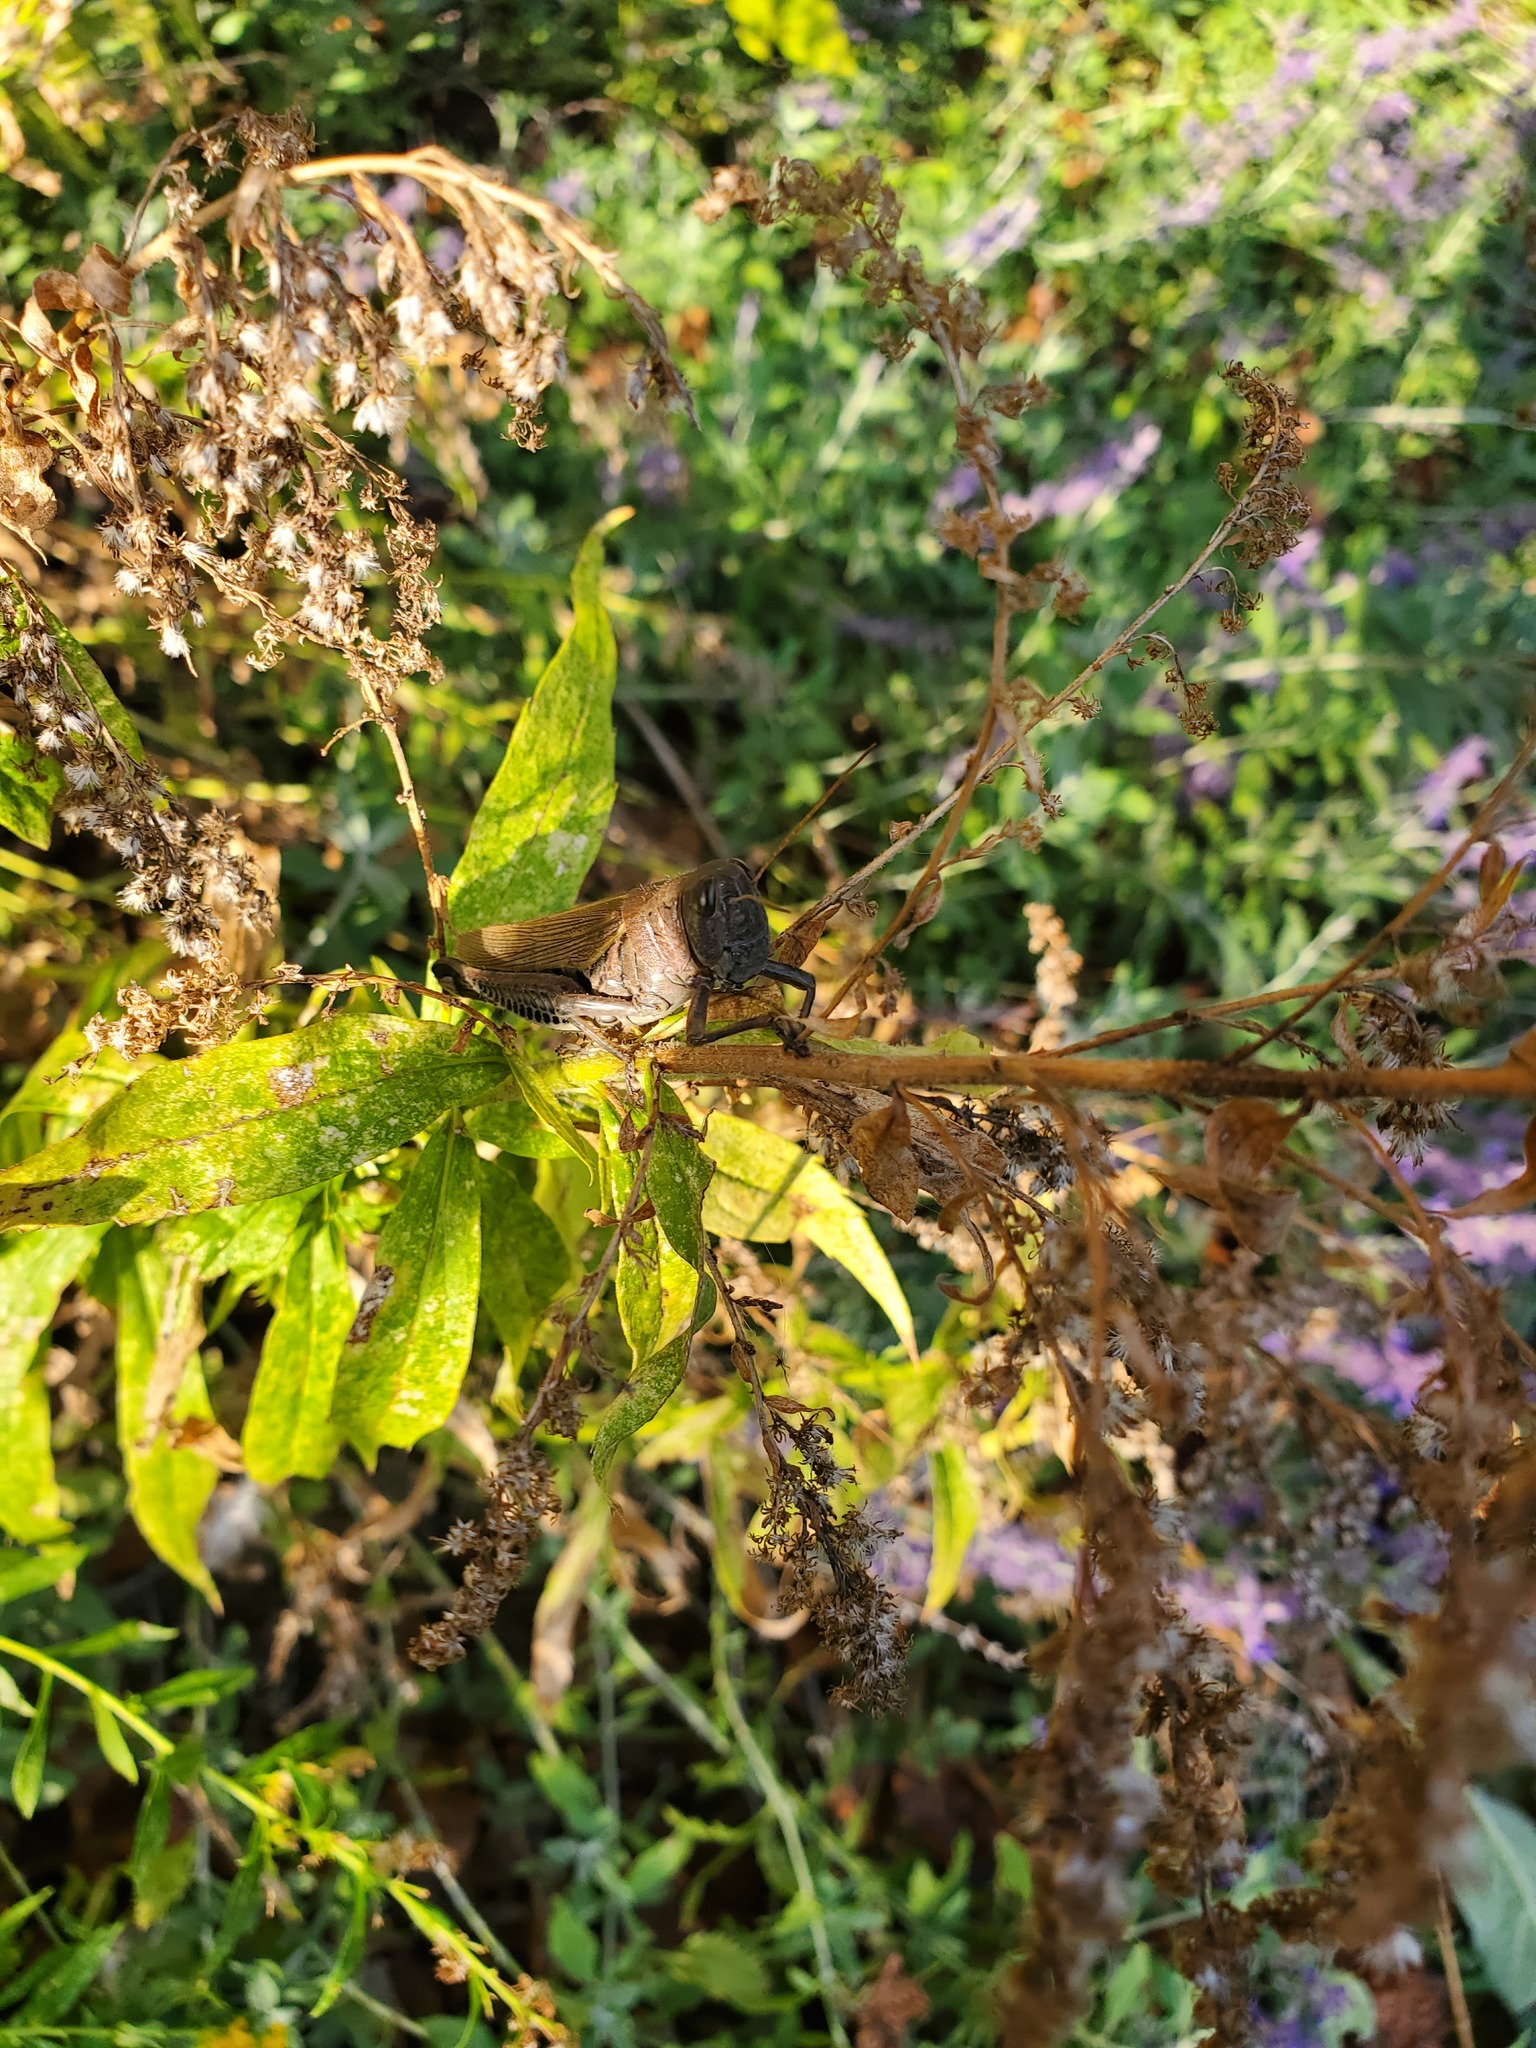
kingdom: Animalia
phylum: Arthropoda
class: Insecta
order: Orthoptera
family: Acrididae
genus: Melanoplus
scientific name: Melanoplus differentialis
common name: Differential grasshopper
